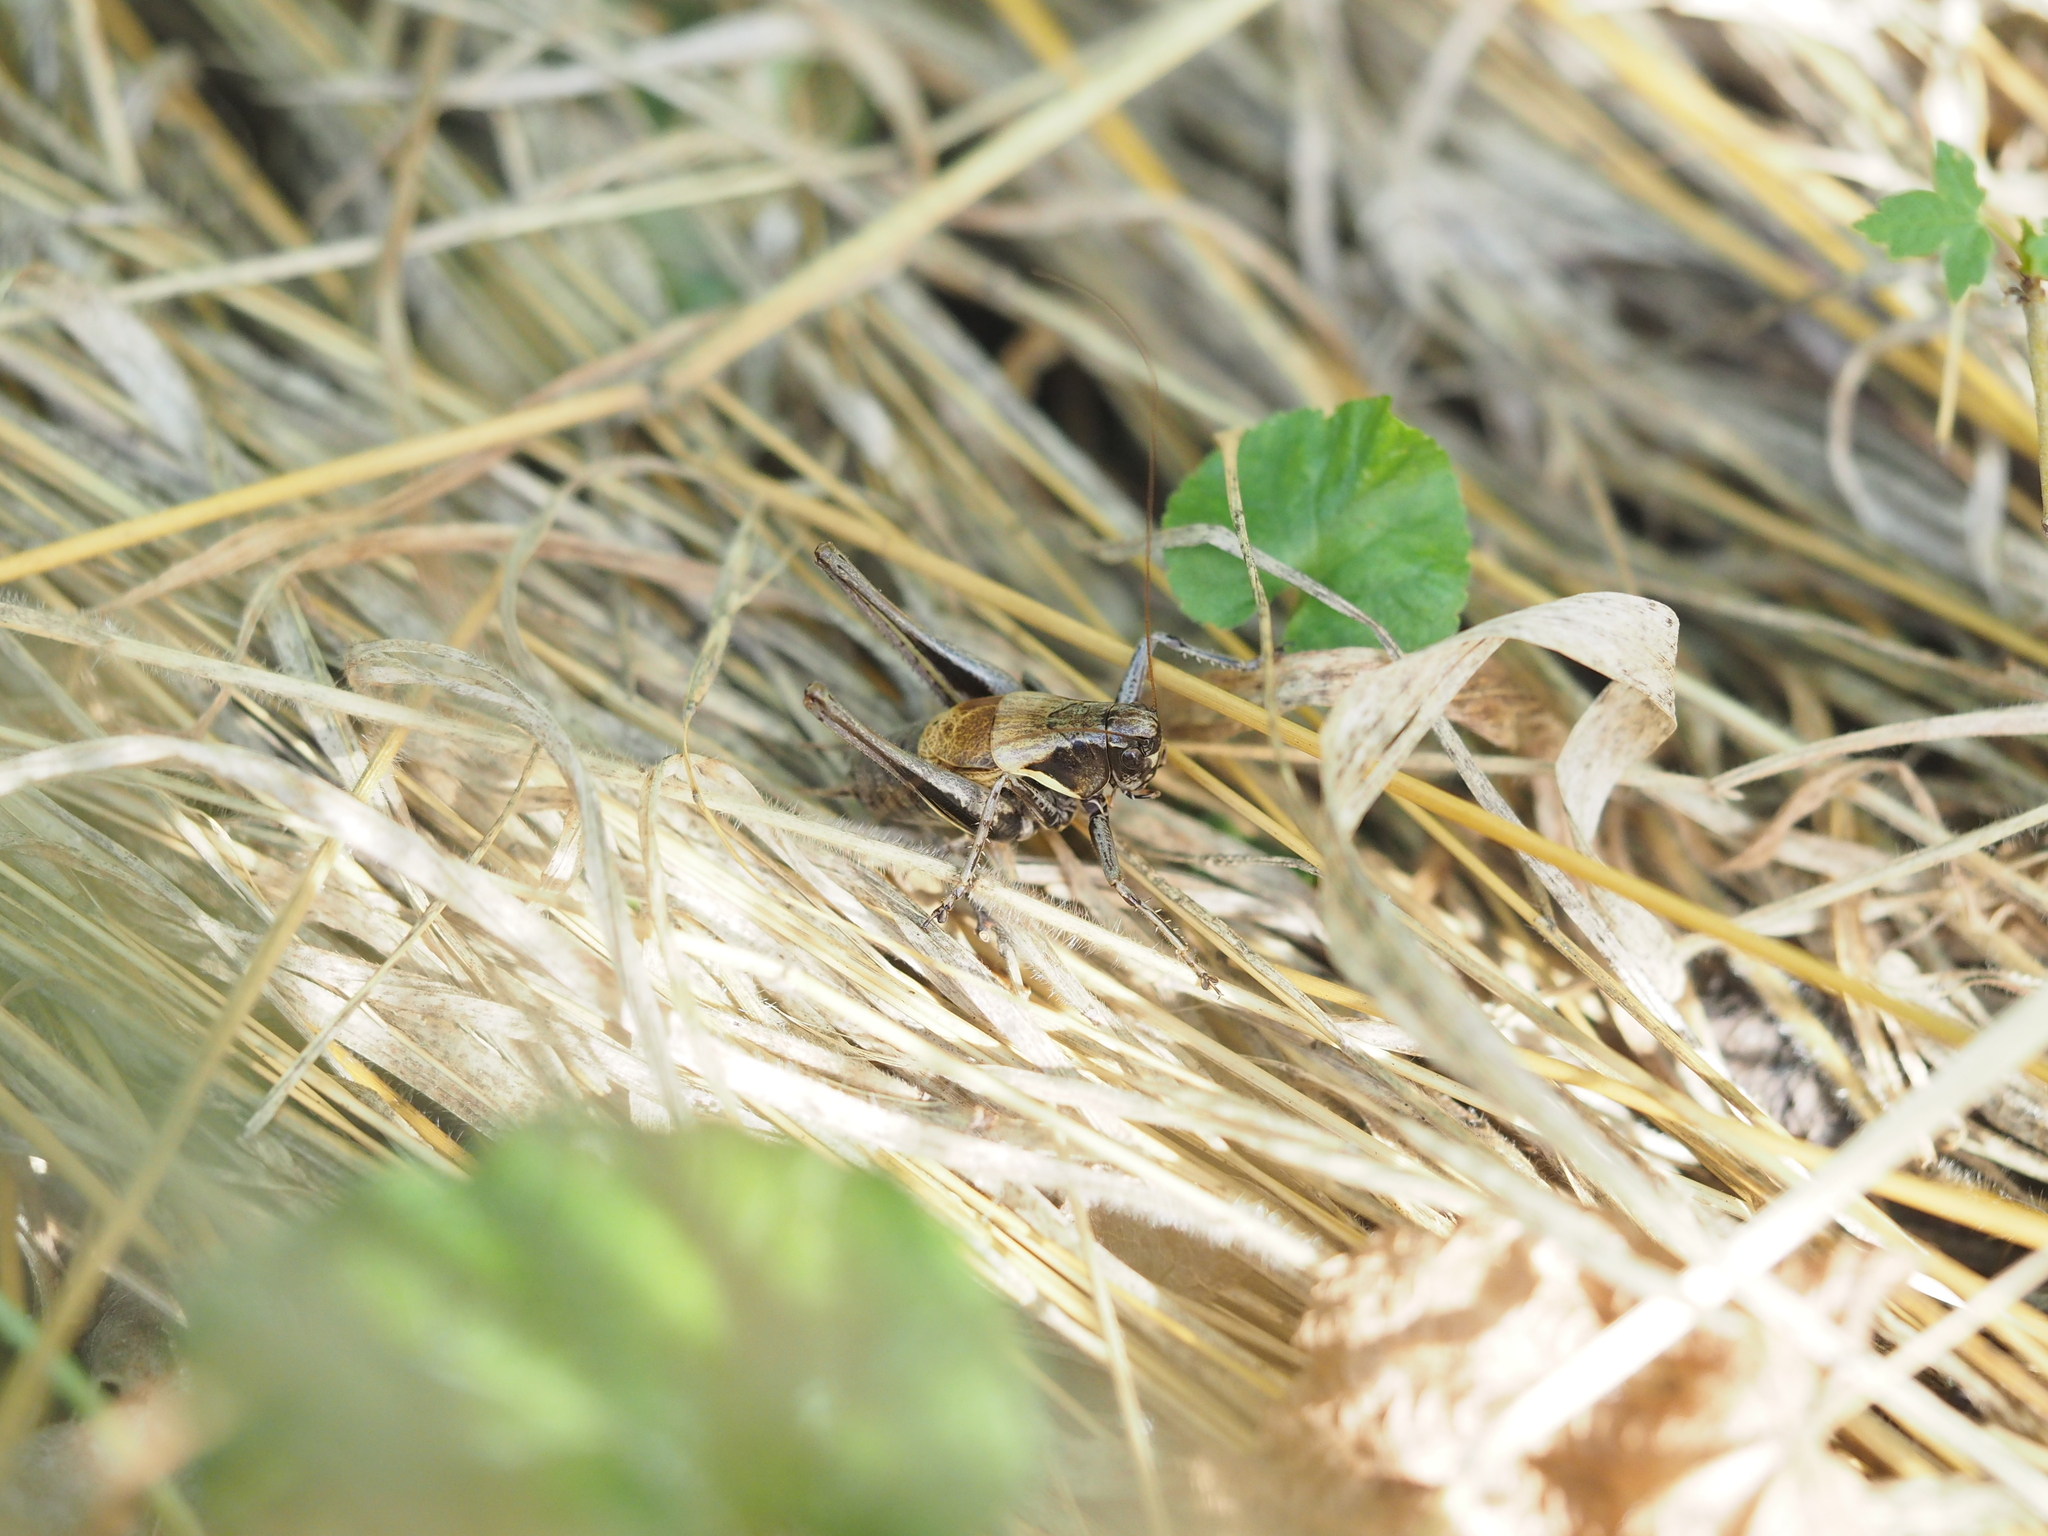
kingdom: Animalia
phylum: Arthropoda
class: Insecta
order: Orthoptera
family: Tettigoniidae
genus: Pholidoptera
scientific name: Pholidoptera aptera
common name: Alpine dark bush-cricket
